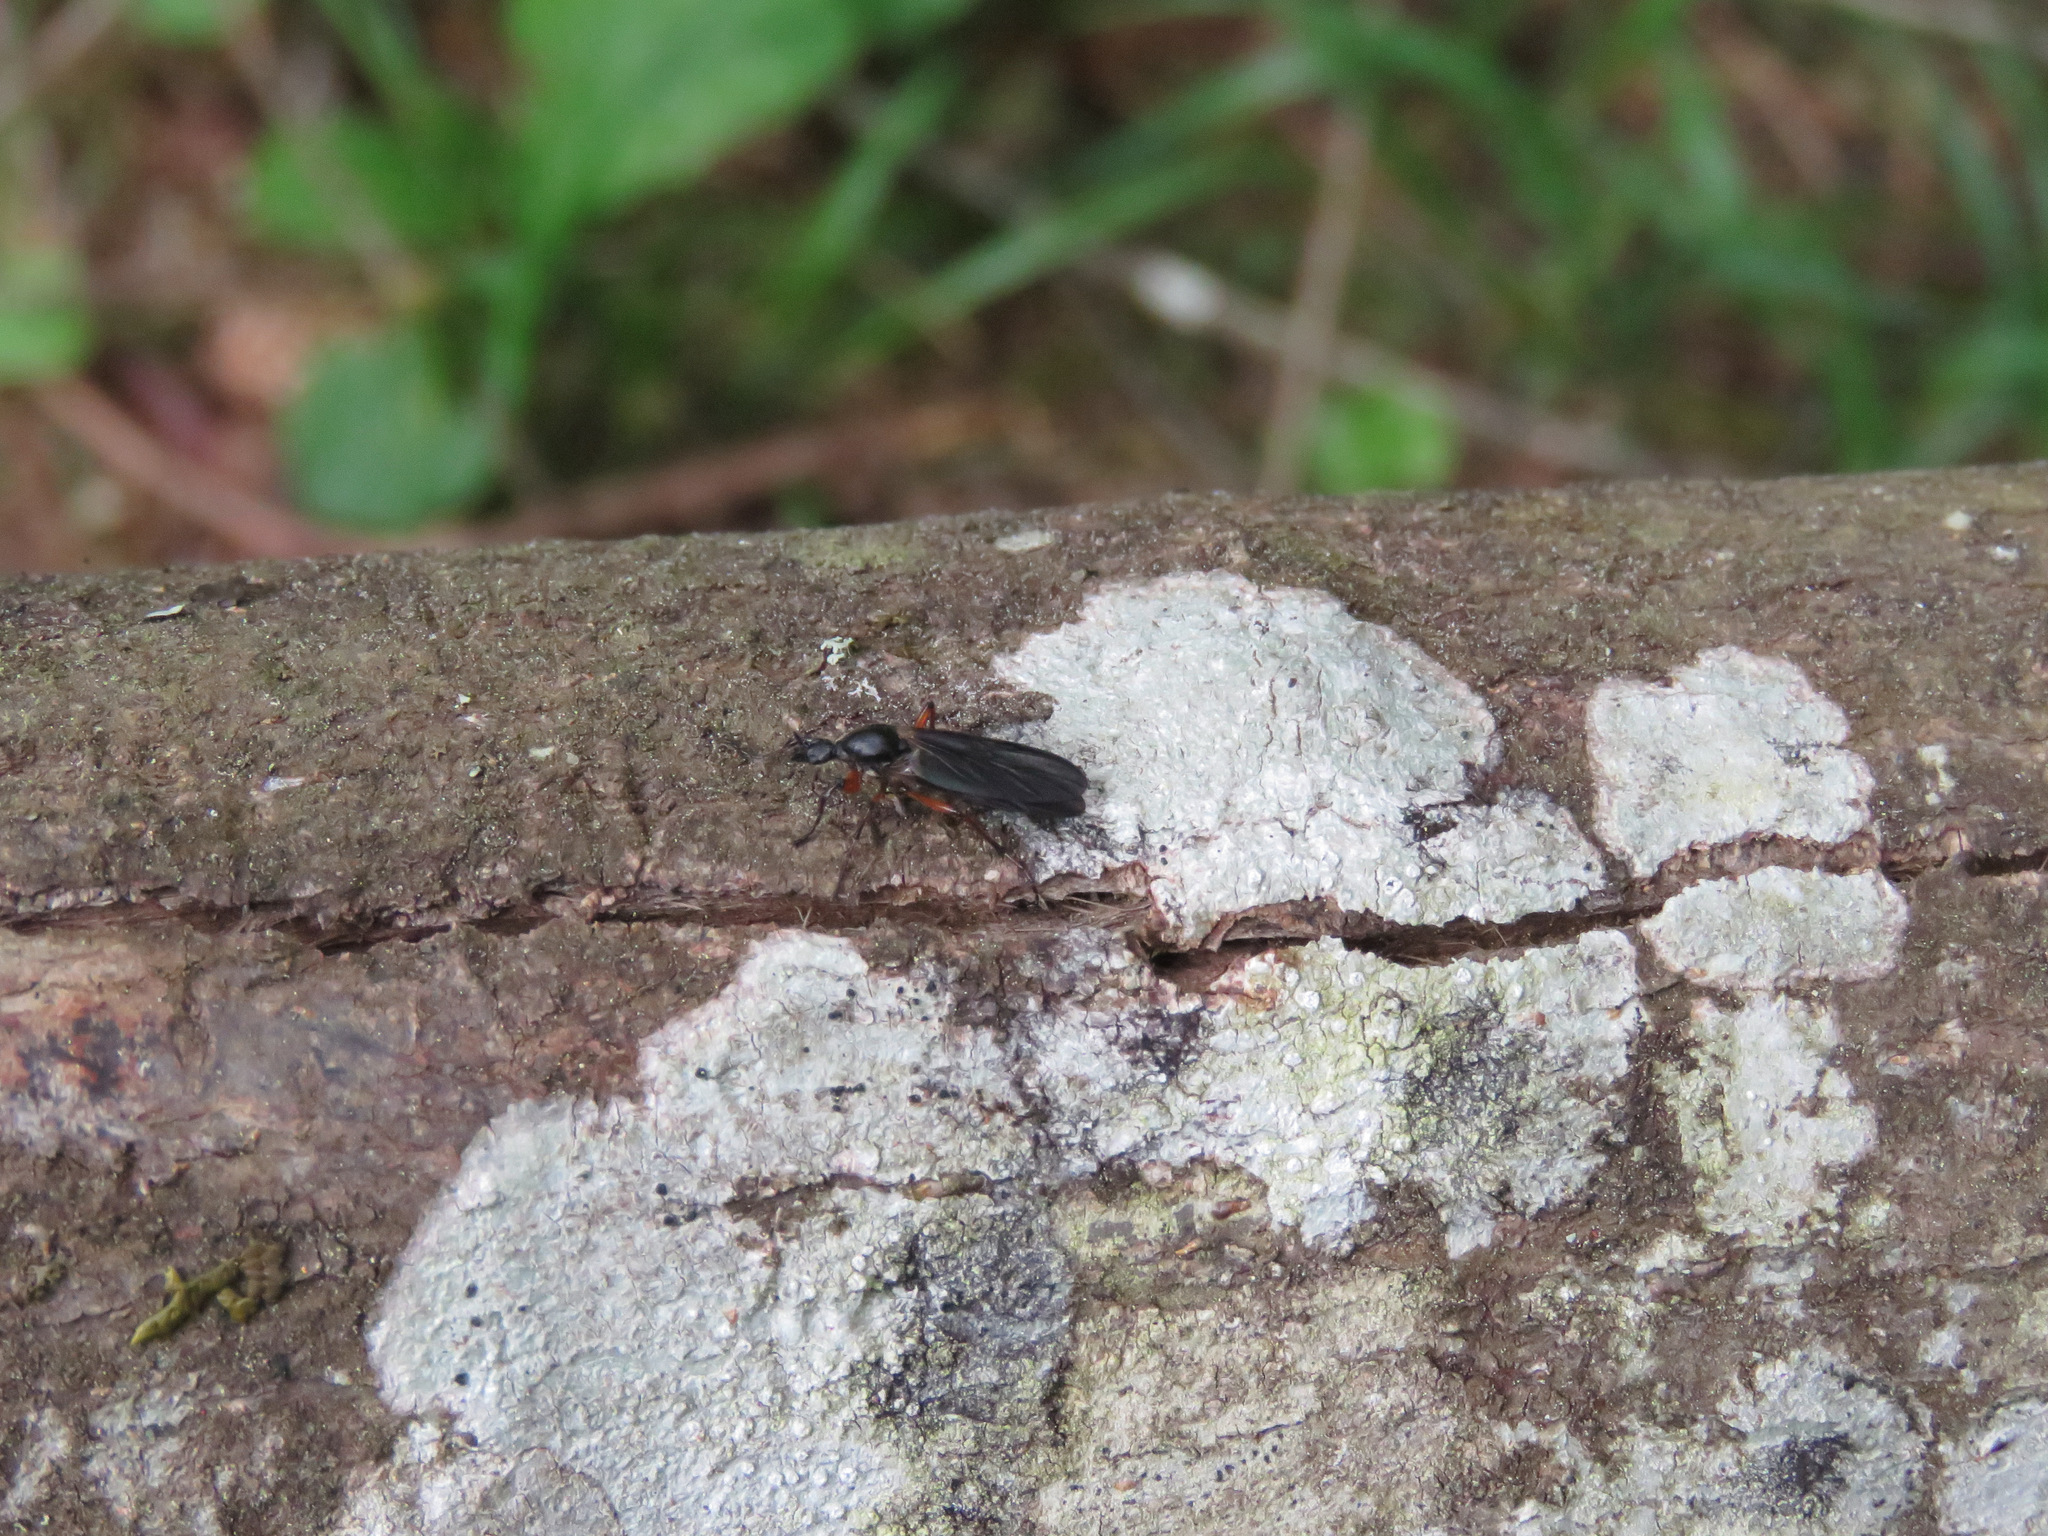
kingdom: Animalia
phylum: Arthropoda
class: Insecta
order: Diptera
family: Bibionidae
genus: Bibio
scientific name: Bibio
